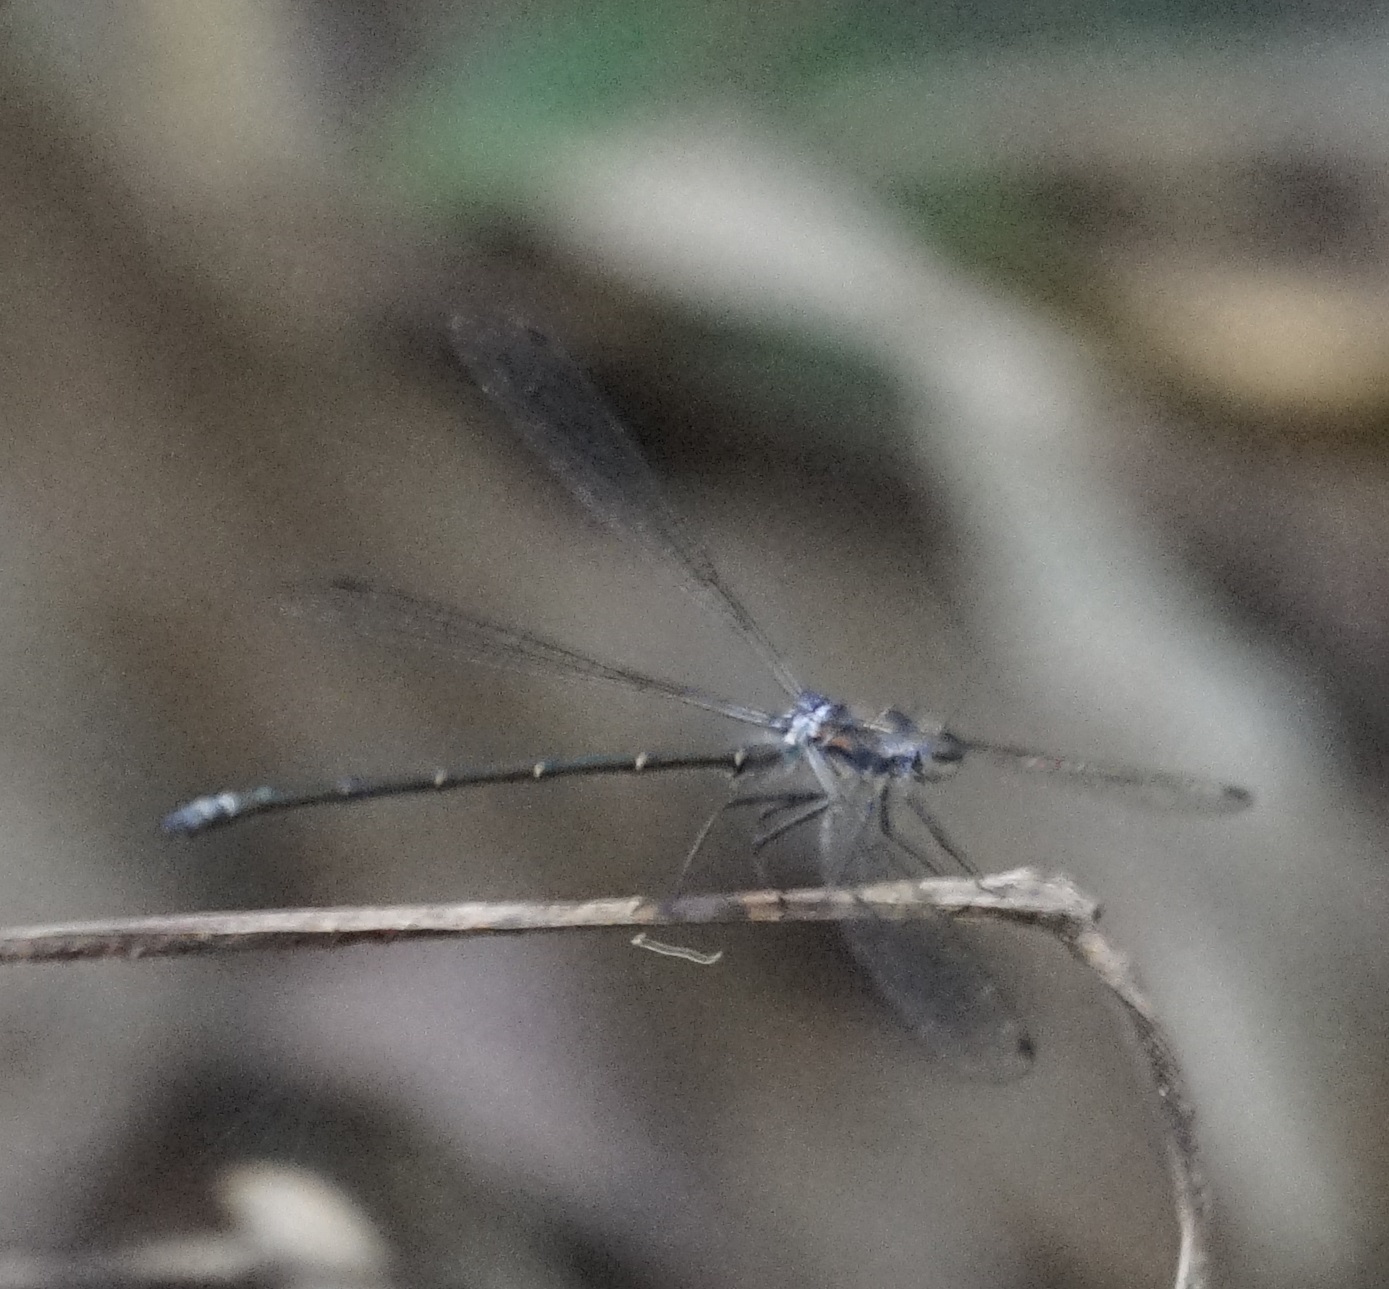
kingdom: Animalia
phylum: Arthropoda
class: Insecta
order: Odonata
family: Argiolestidae
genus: Austroargiolestes
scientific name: Austroargiolestes icteromelas
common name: Common flatwing
